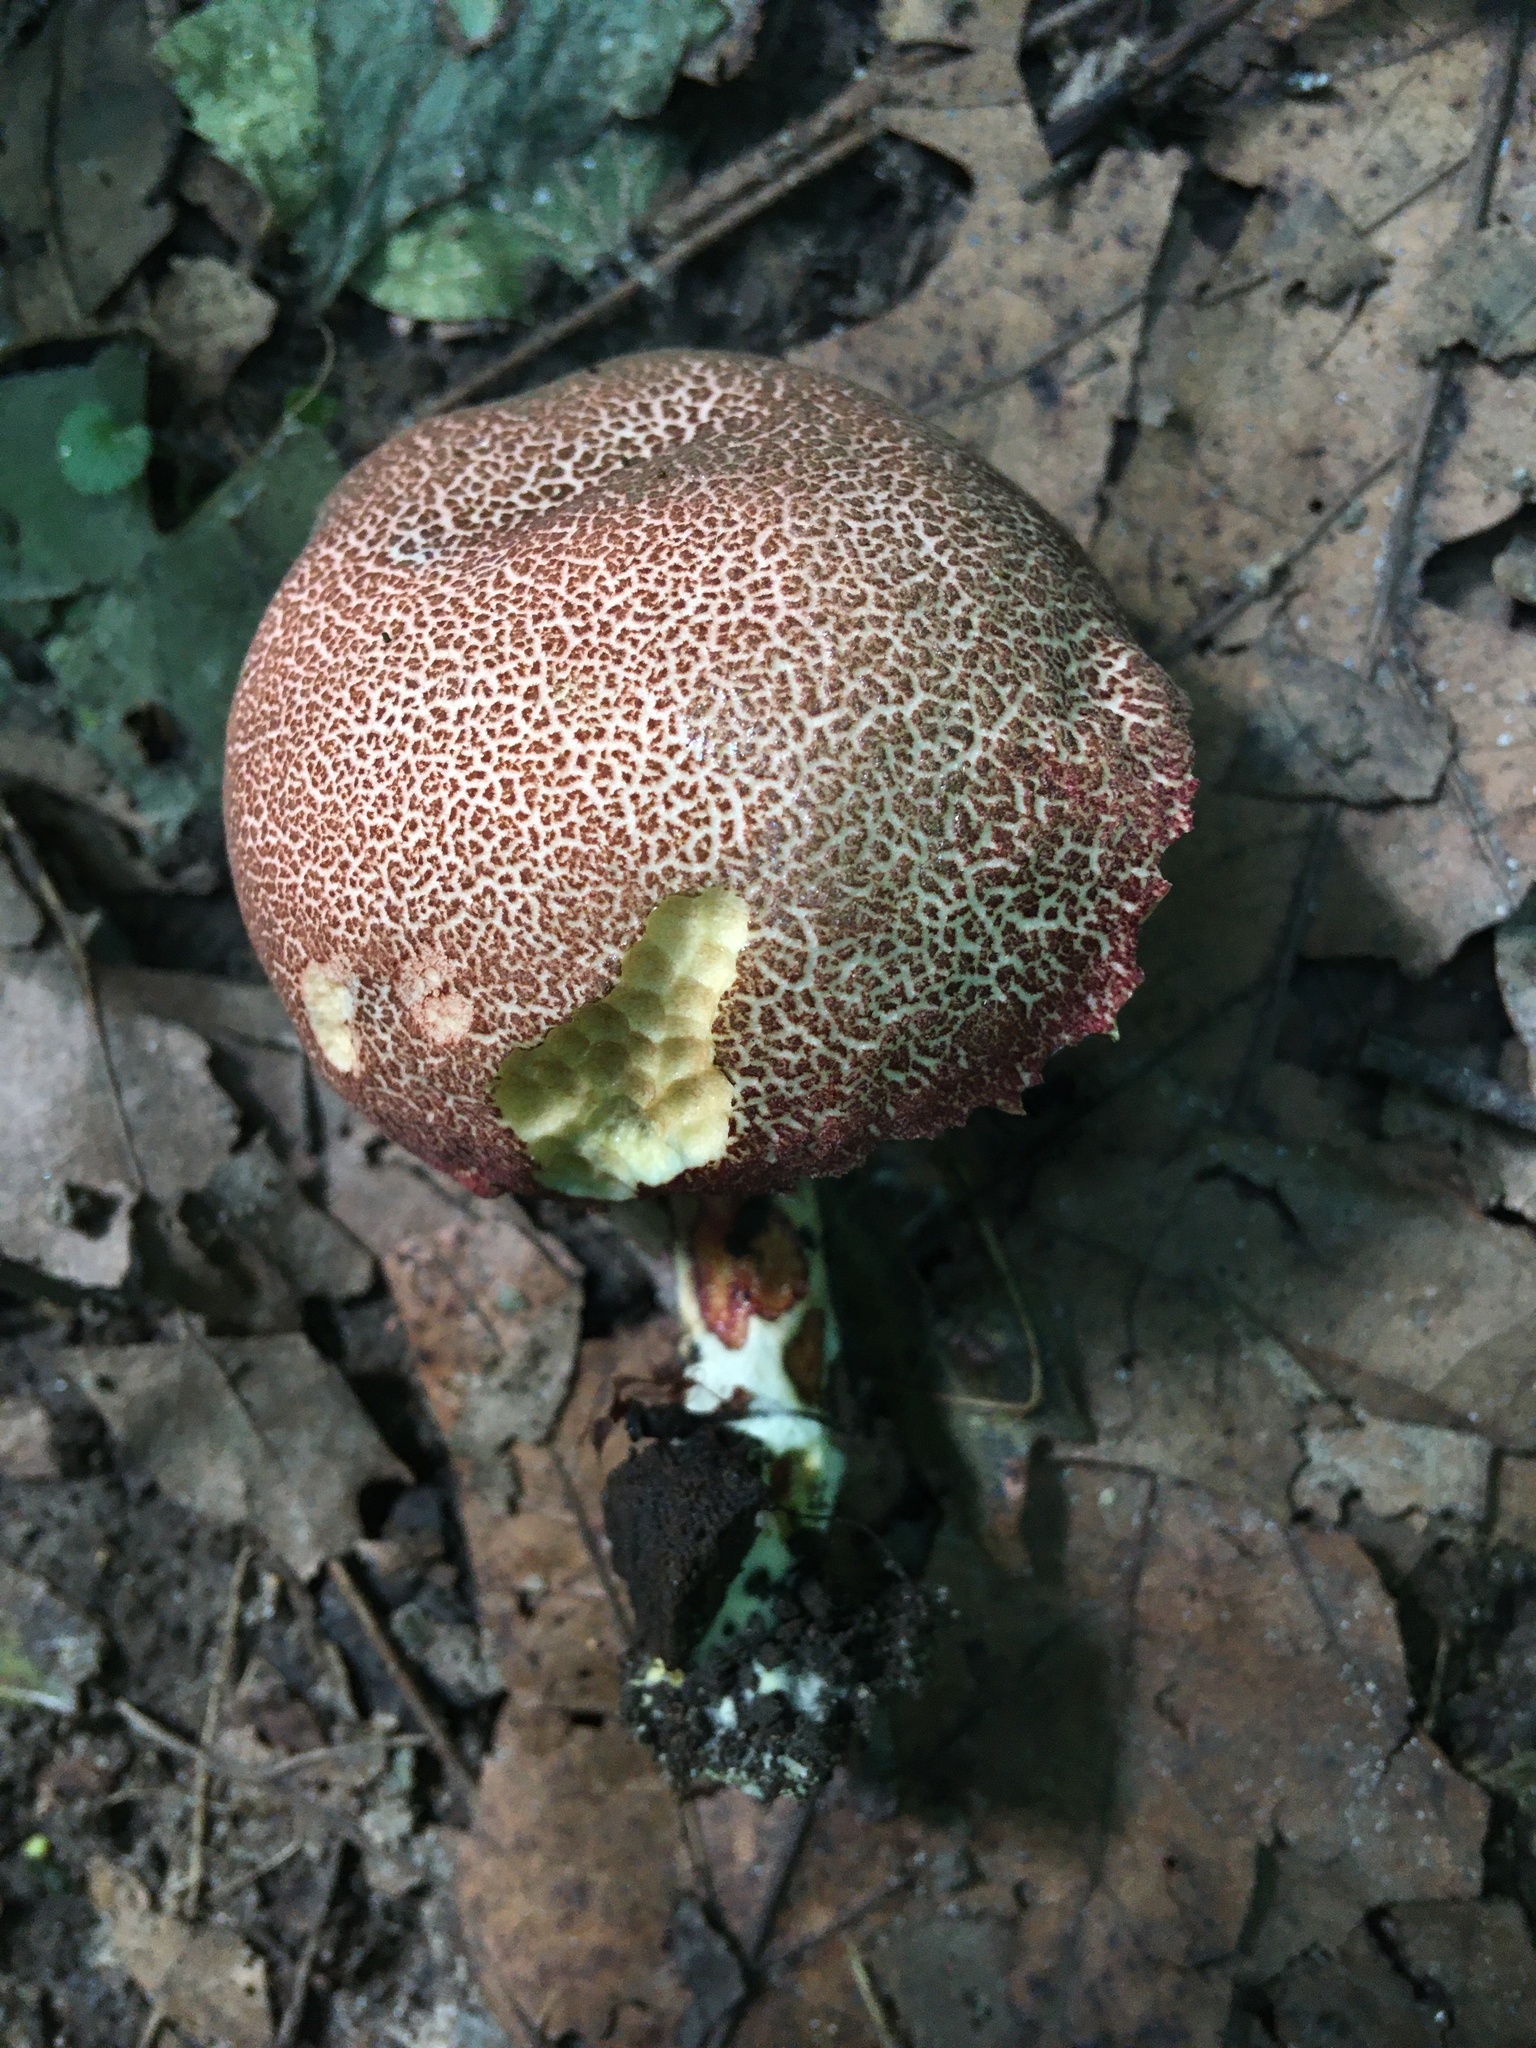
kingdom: Fungi
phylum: Basidiomycota
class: Agaricomycetes
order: Boletales
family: Boletaceae
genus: Xerocomellus
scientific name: Xerocomellus chrysenteron
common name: Red-cracking bolete
